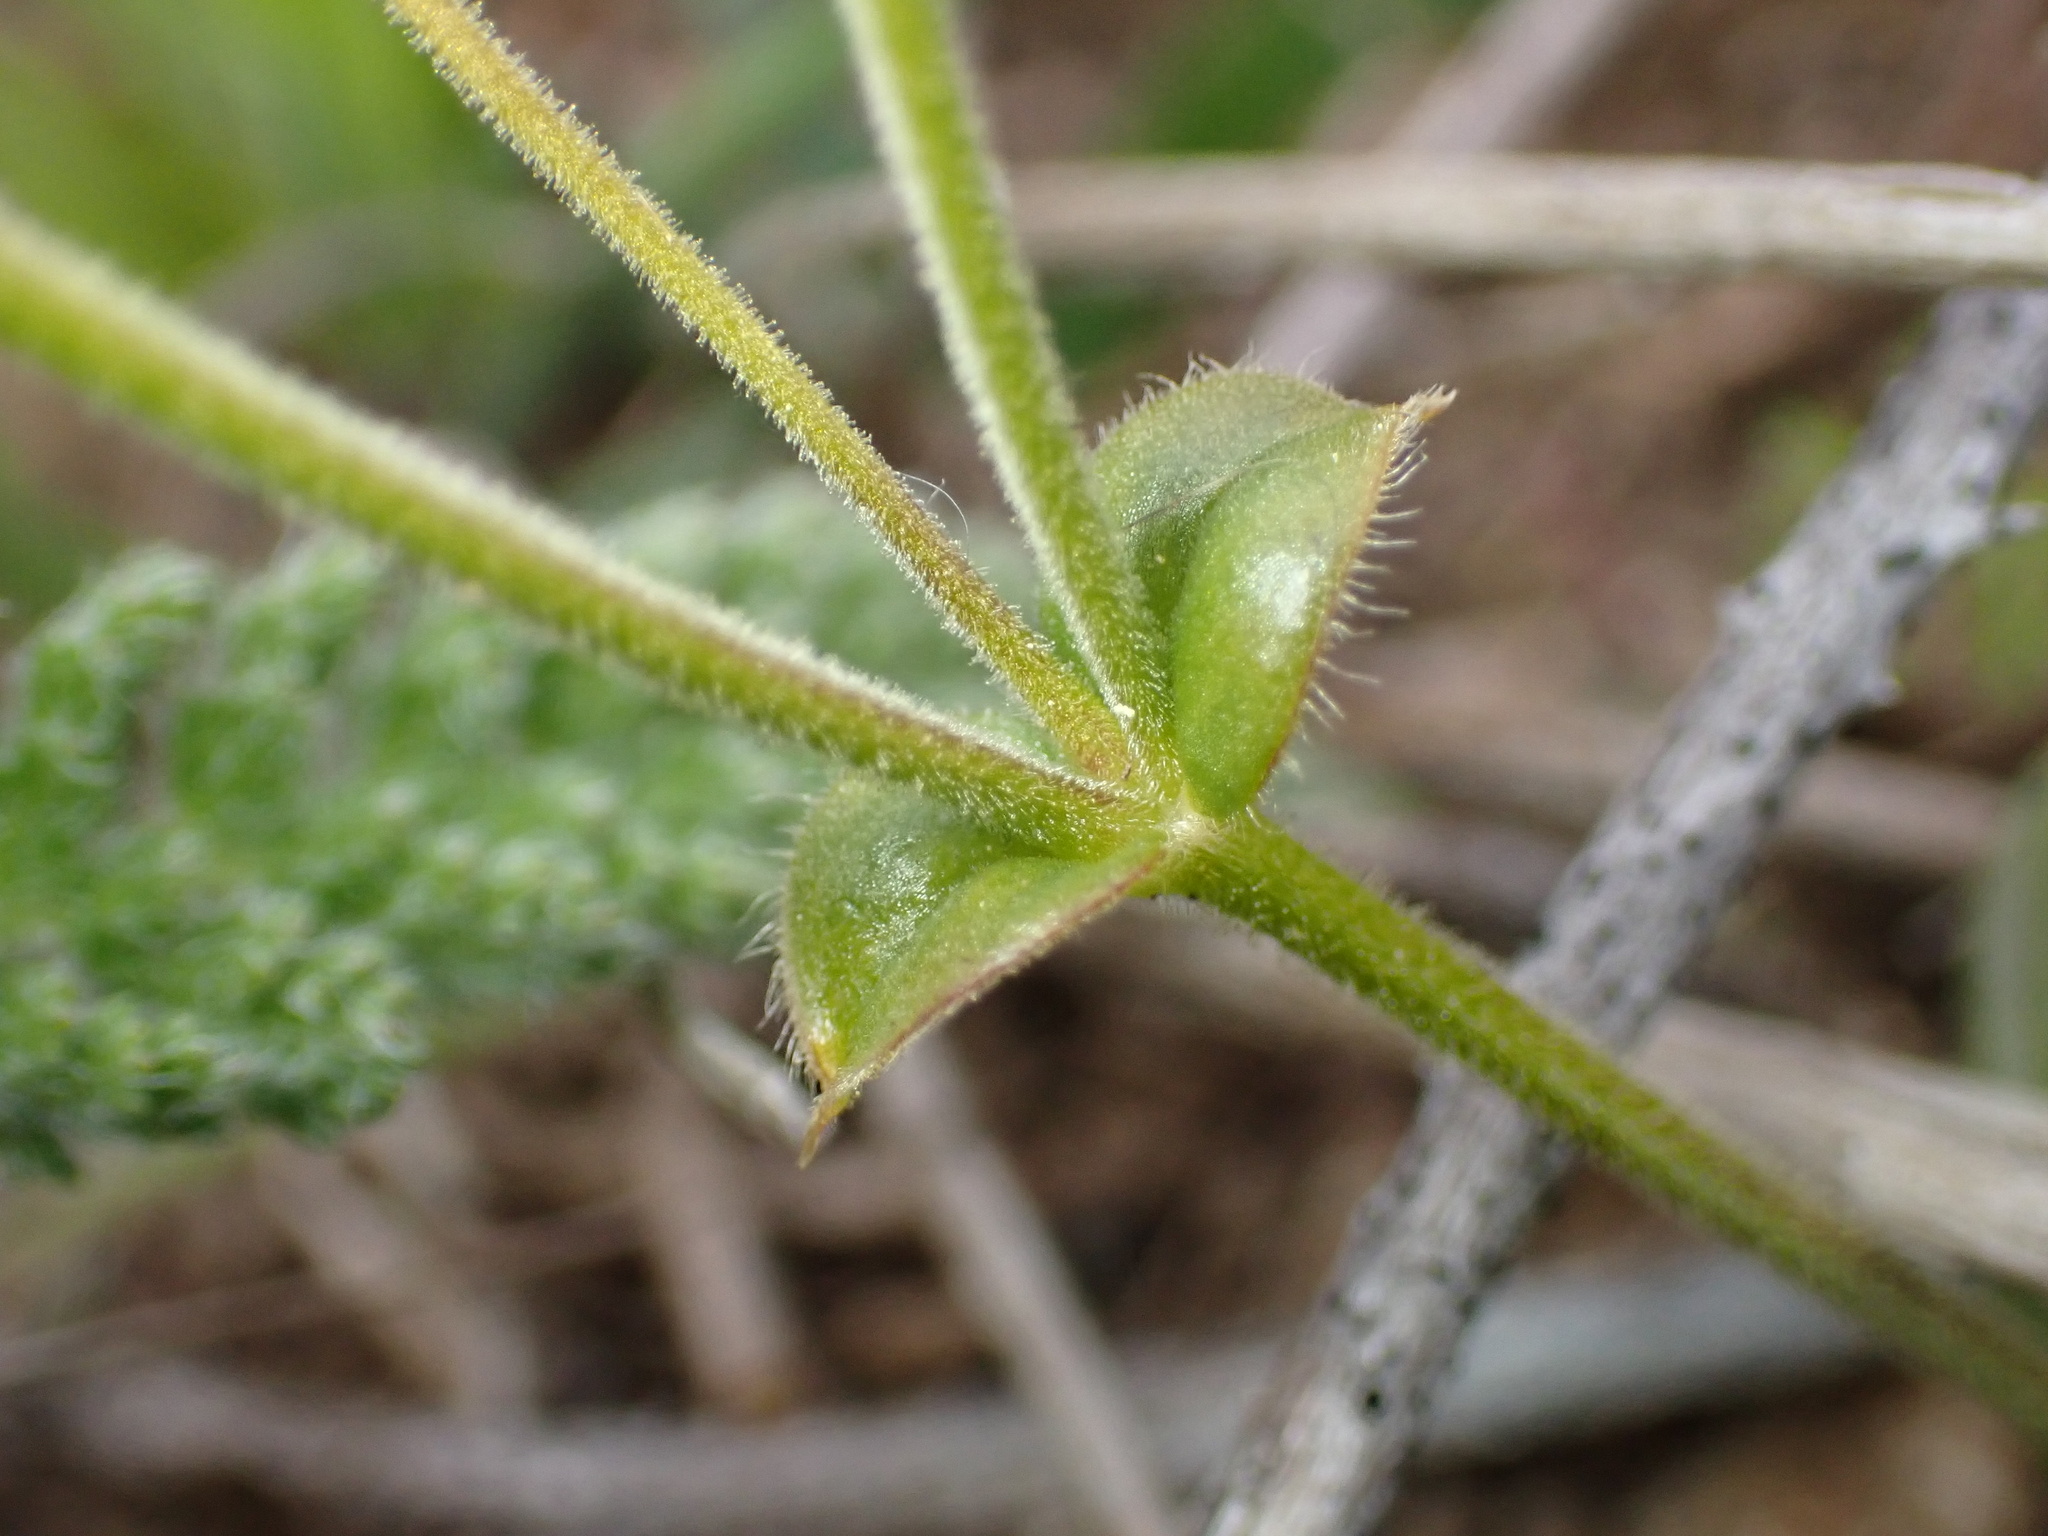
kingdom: Plantae
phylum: Tracheophyta
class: Magnoliopsida
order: Caryophyllales
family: Caryophyllaceae
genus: Cerastium
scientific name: Cerastium arvense
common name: Field mouse-ear
